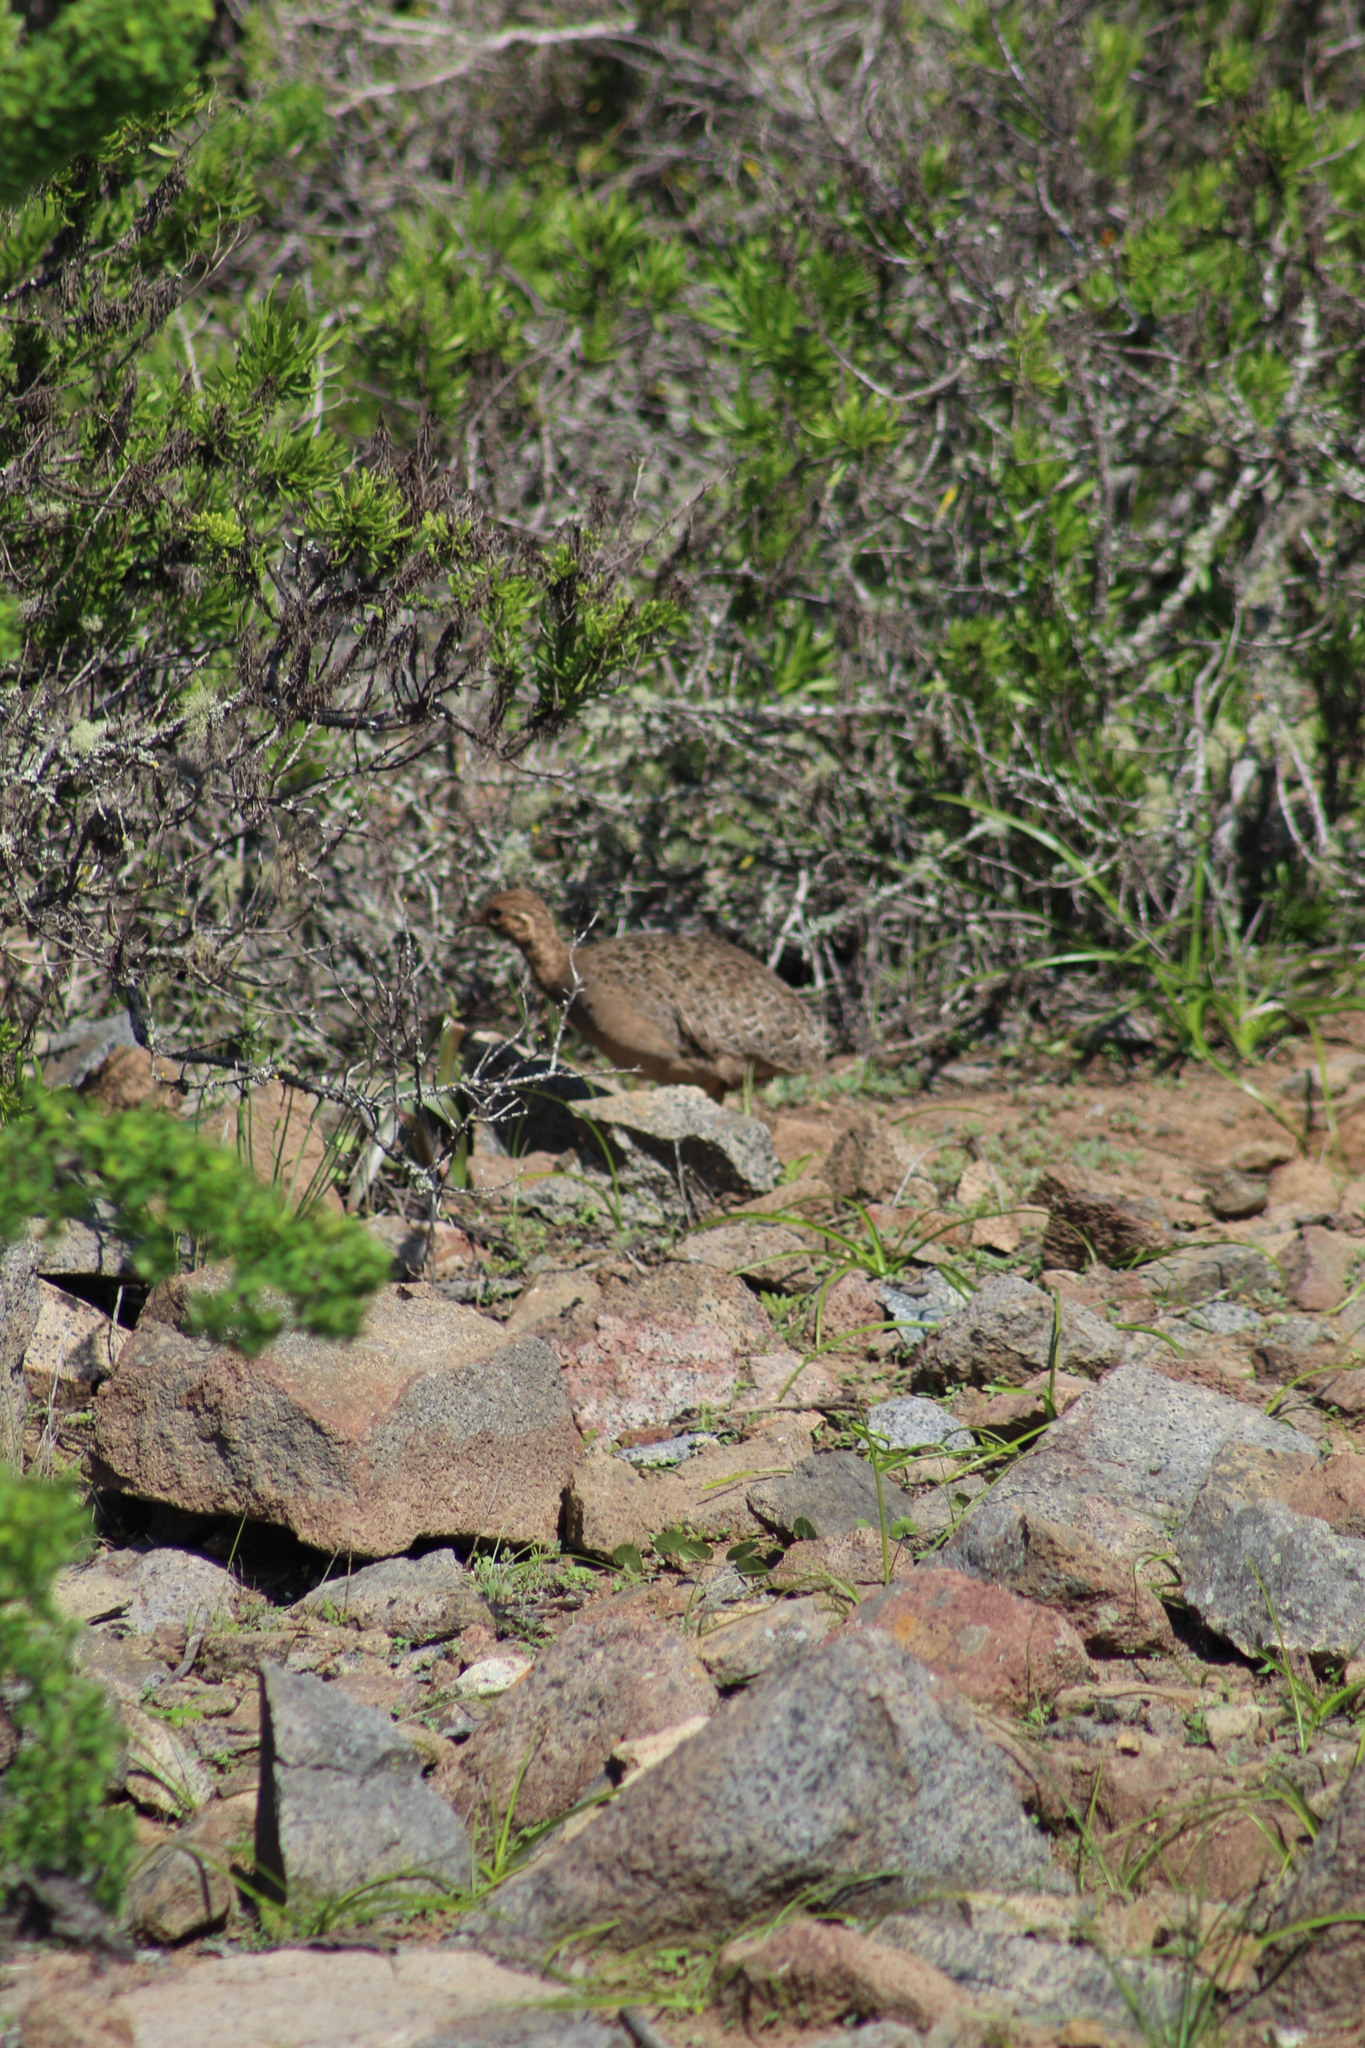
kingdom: Animalia
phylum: Chordata
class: Aves
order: Tinamiformes
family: Tinamidae
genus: Nothoprocta
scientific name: Nothoprocta perdicaria
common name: Chilean tinamou
